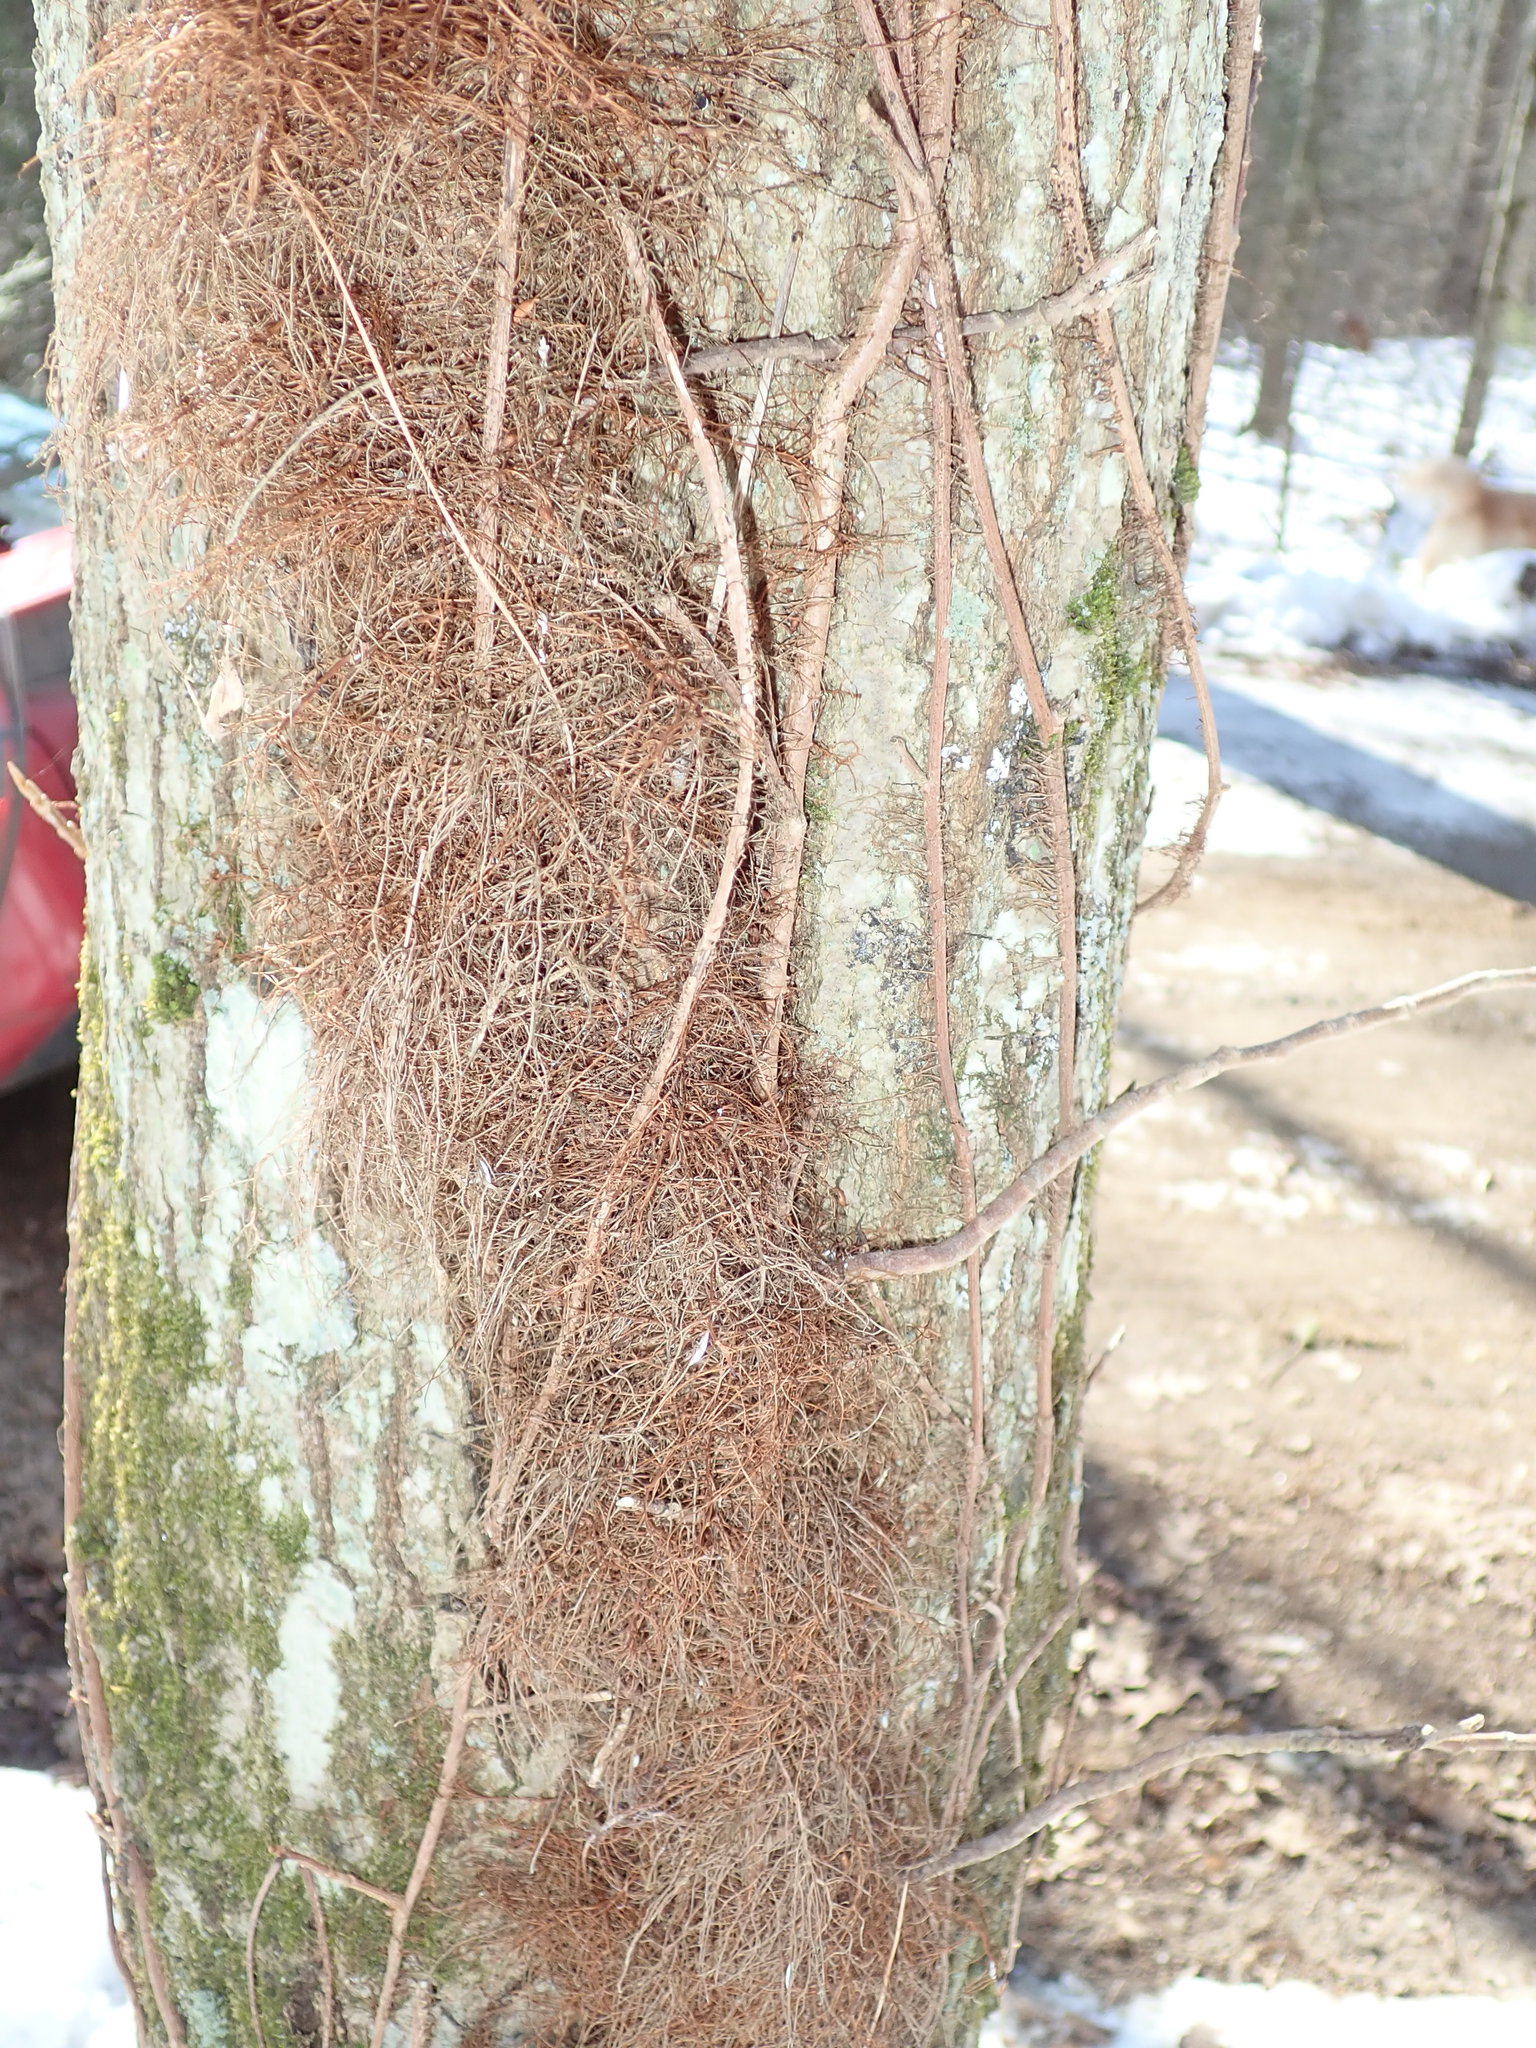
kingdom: Plantae
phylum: Tracheophyta
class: Magnoliopsida
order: Sapindales
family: Anacardiaceae
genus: Toxicodendron
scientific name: Toxicodendron radicans
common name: Poison ivy
